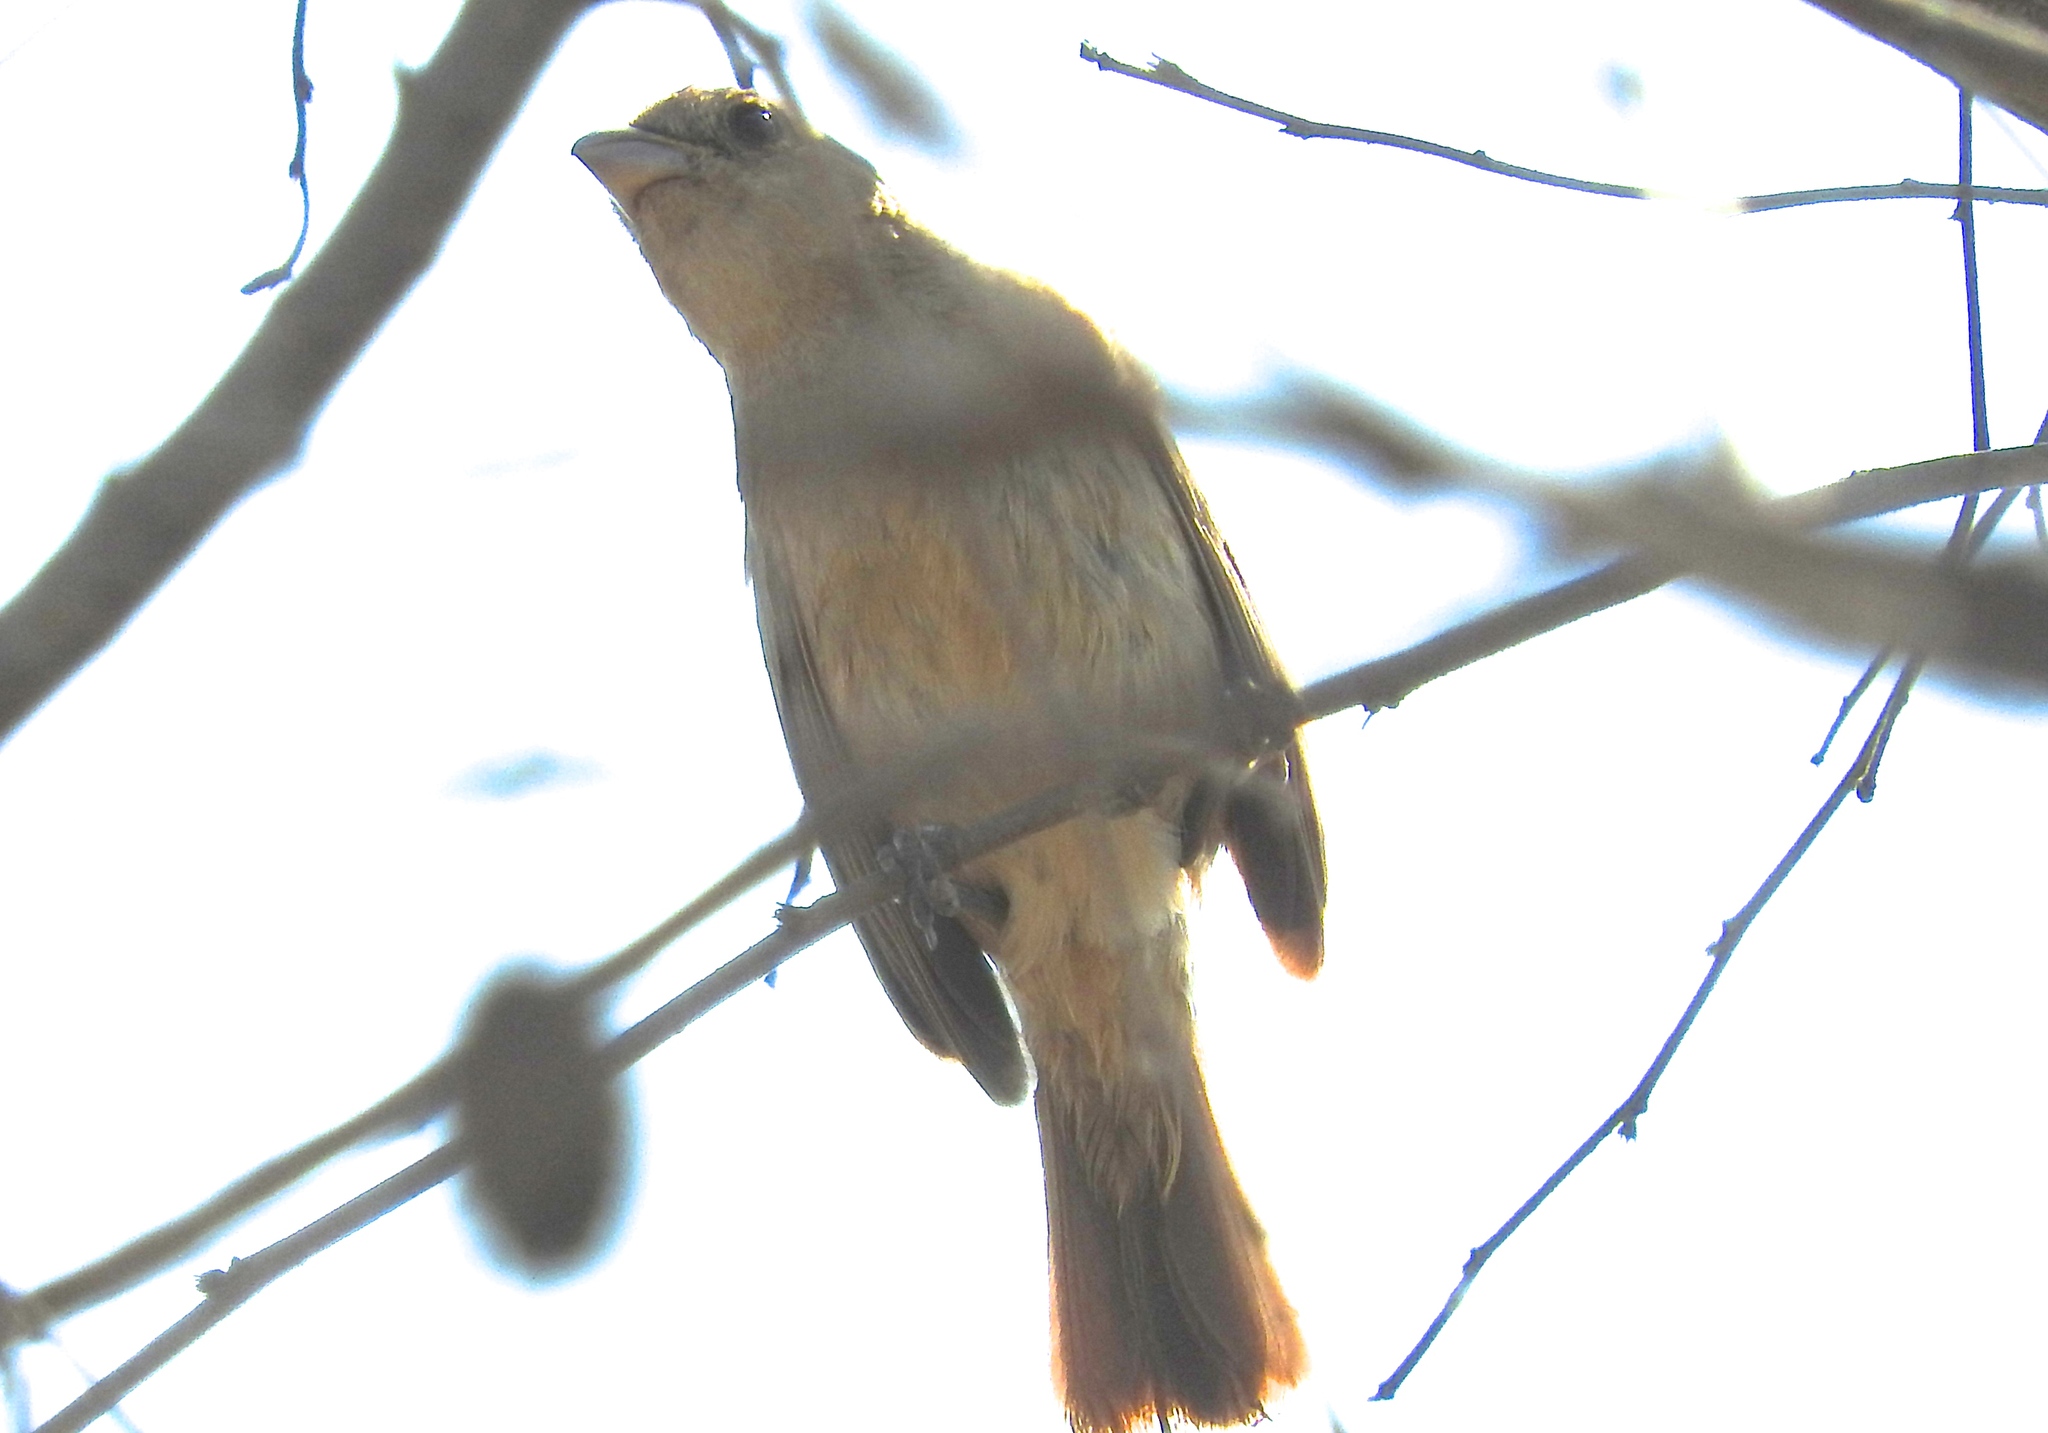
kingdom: Animalia
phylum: Chordata
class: Aves
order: Passeriformes
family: Cardinalidae
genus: Passerina
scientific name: Passerina versicolor
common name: Varied bunting
